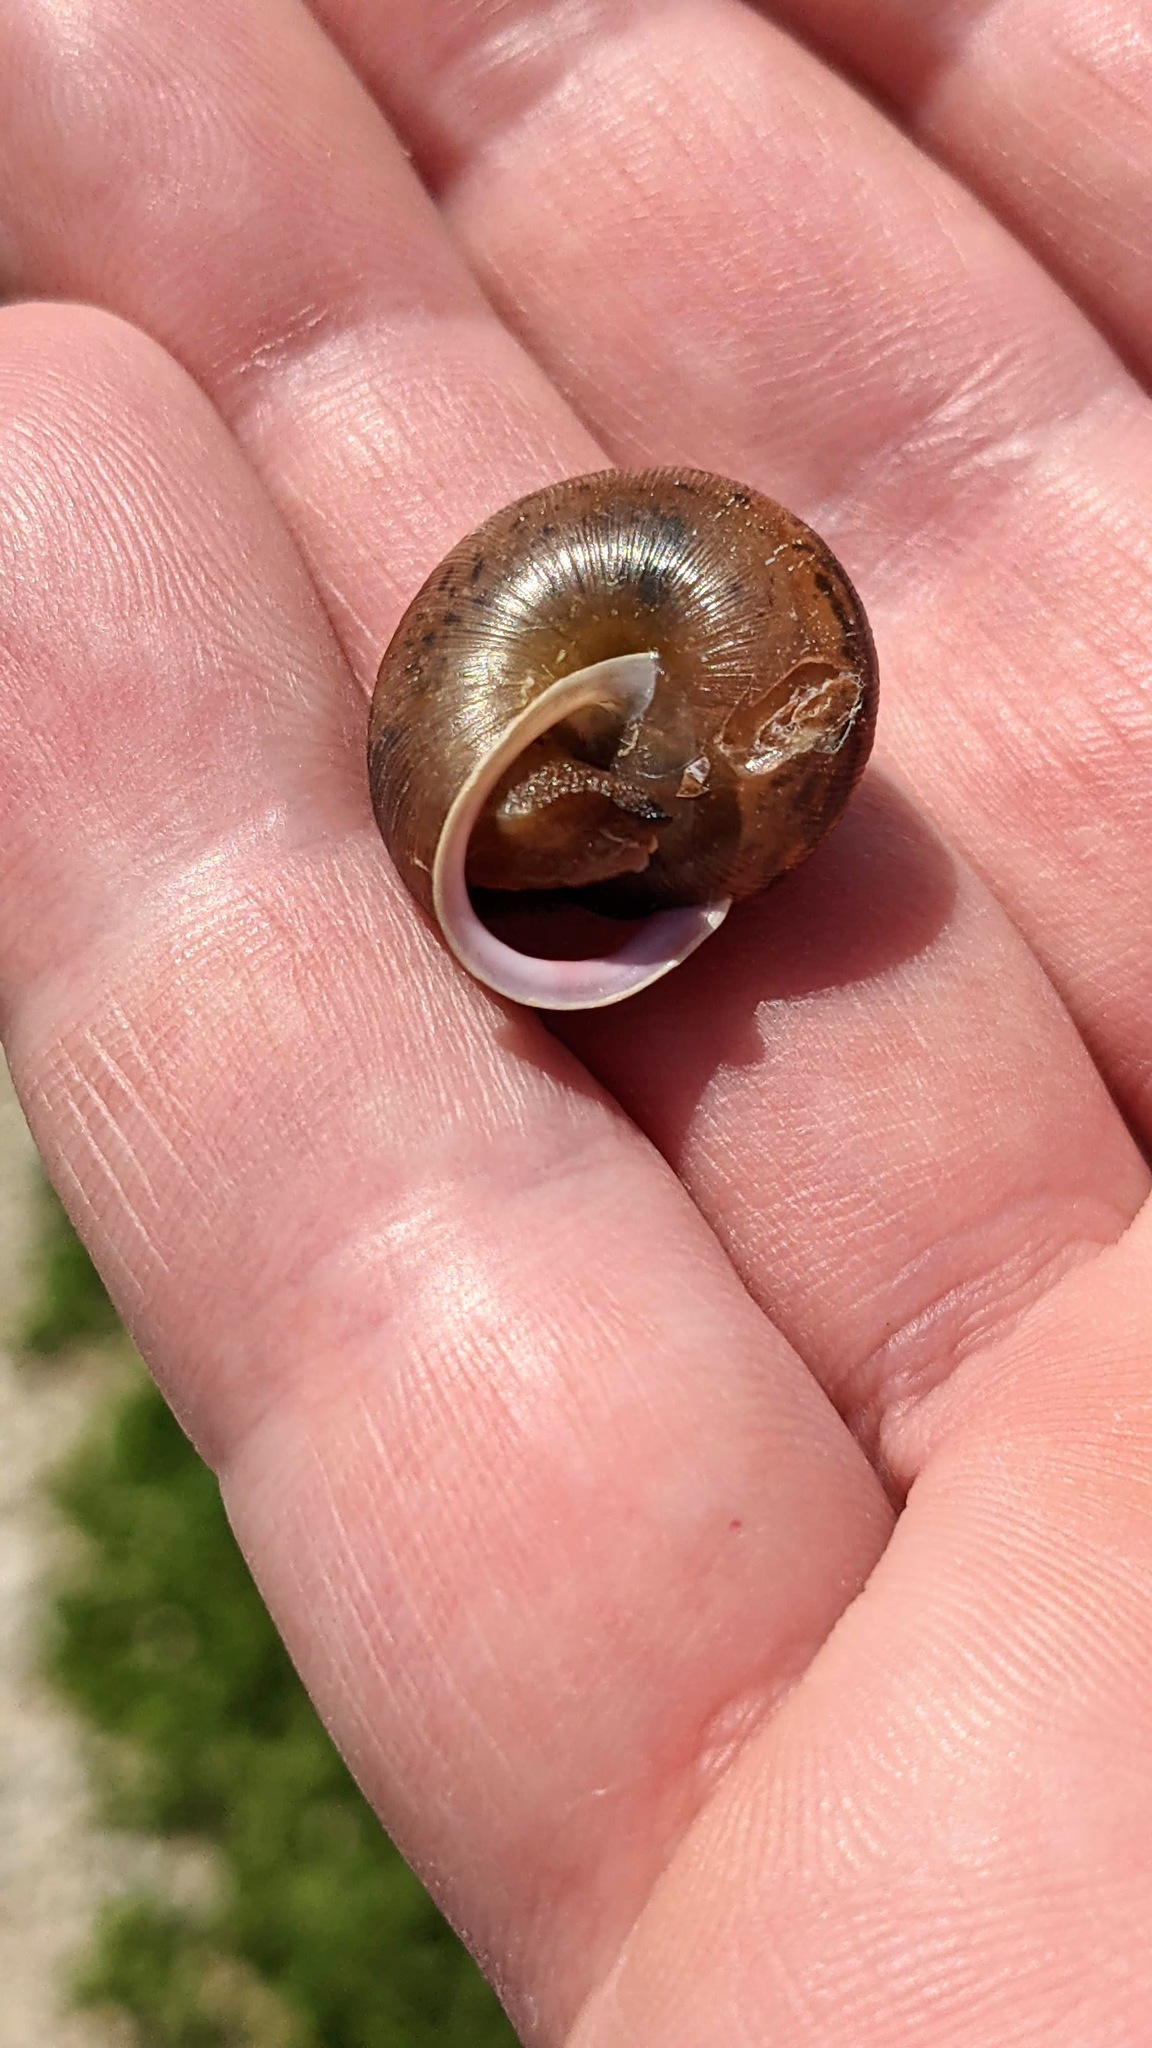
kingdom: Animalia
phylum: Mollusca
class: Gastropoda
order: Stylommatophora
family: Polygyridae
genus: Mesodon
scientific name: Mesodon thyroidus
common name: White-lip globe
